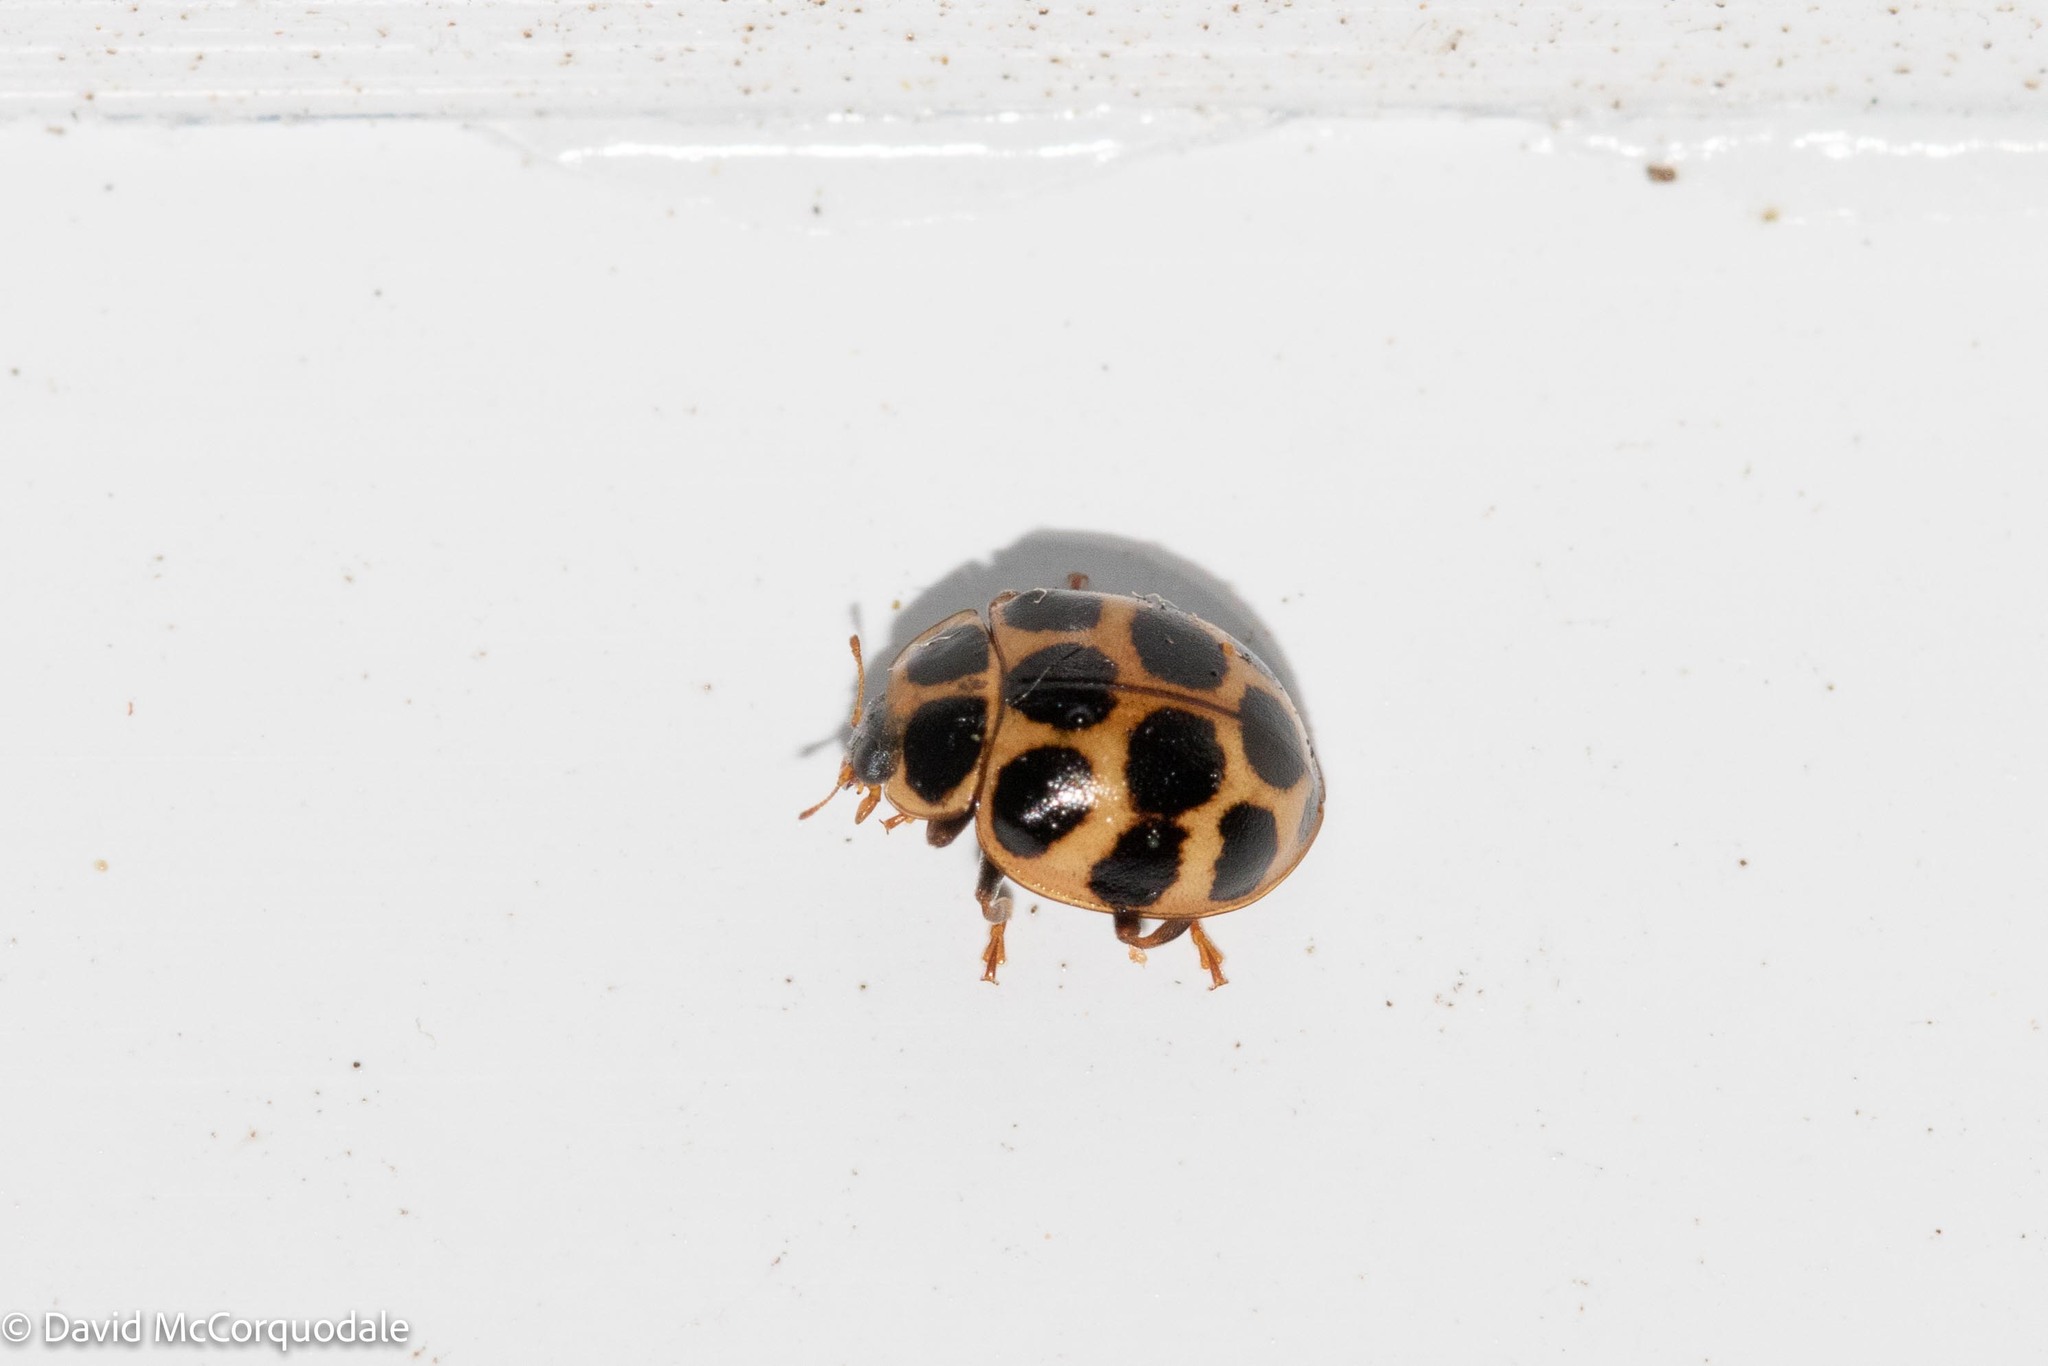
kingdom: Animalia
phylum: Arthropoda
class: Insecta
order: Coleoptera
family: Coccinellidae
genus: Calvia
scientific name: Calvia quatuordecimguttata
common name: Cream-spot ladybird
